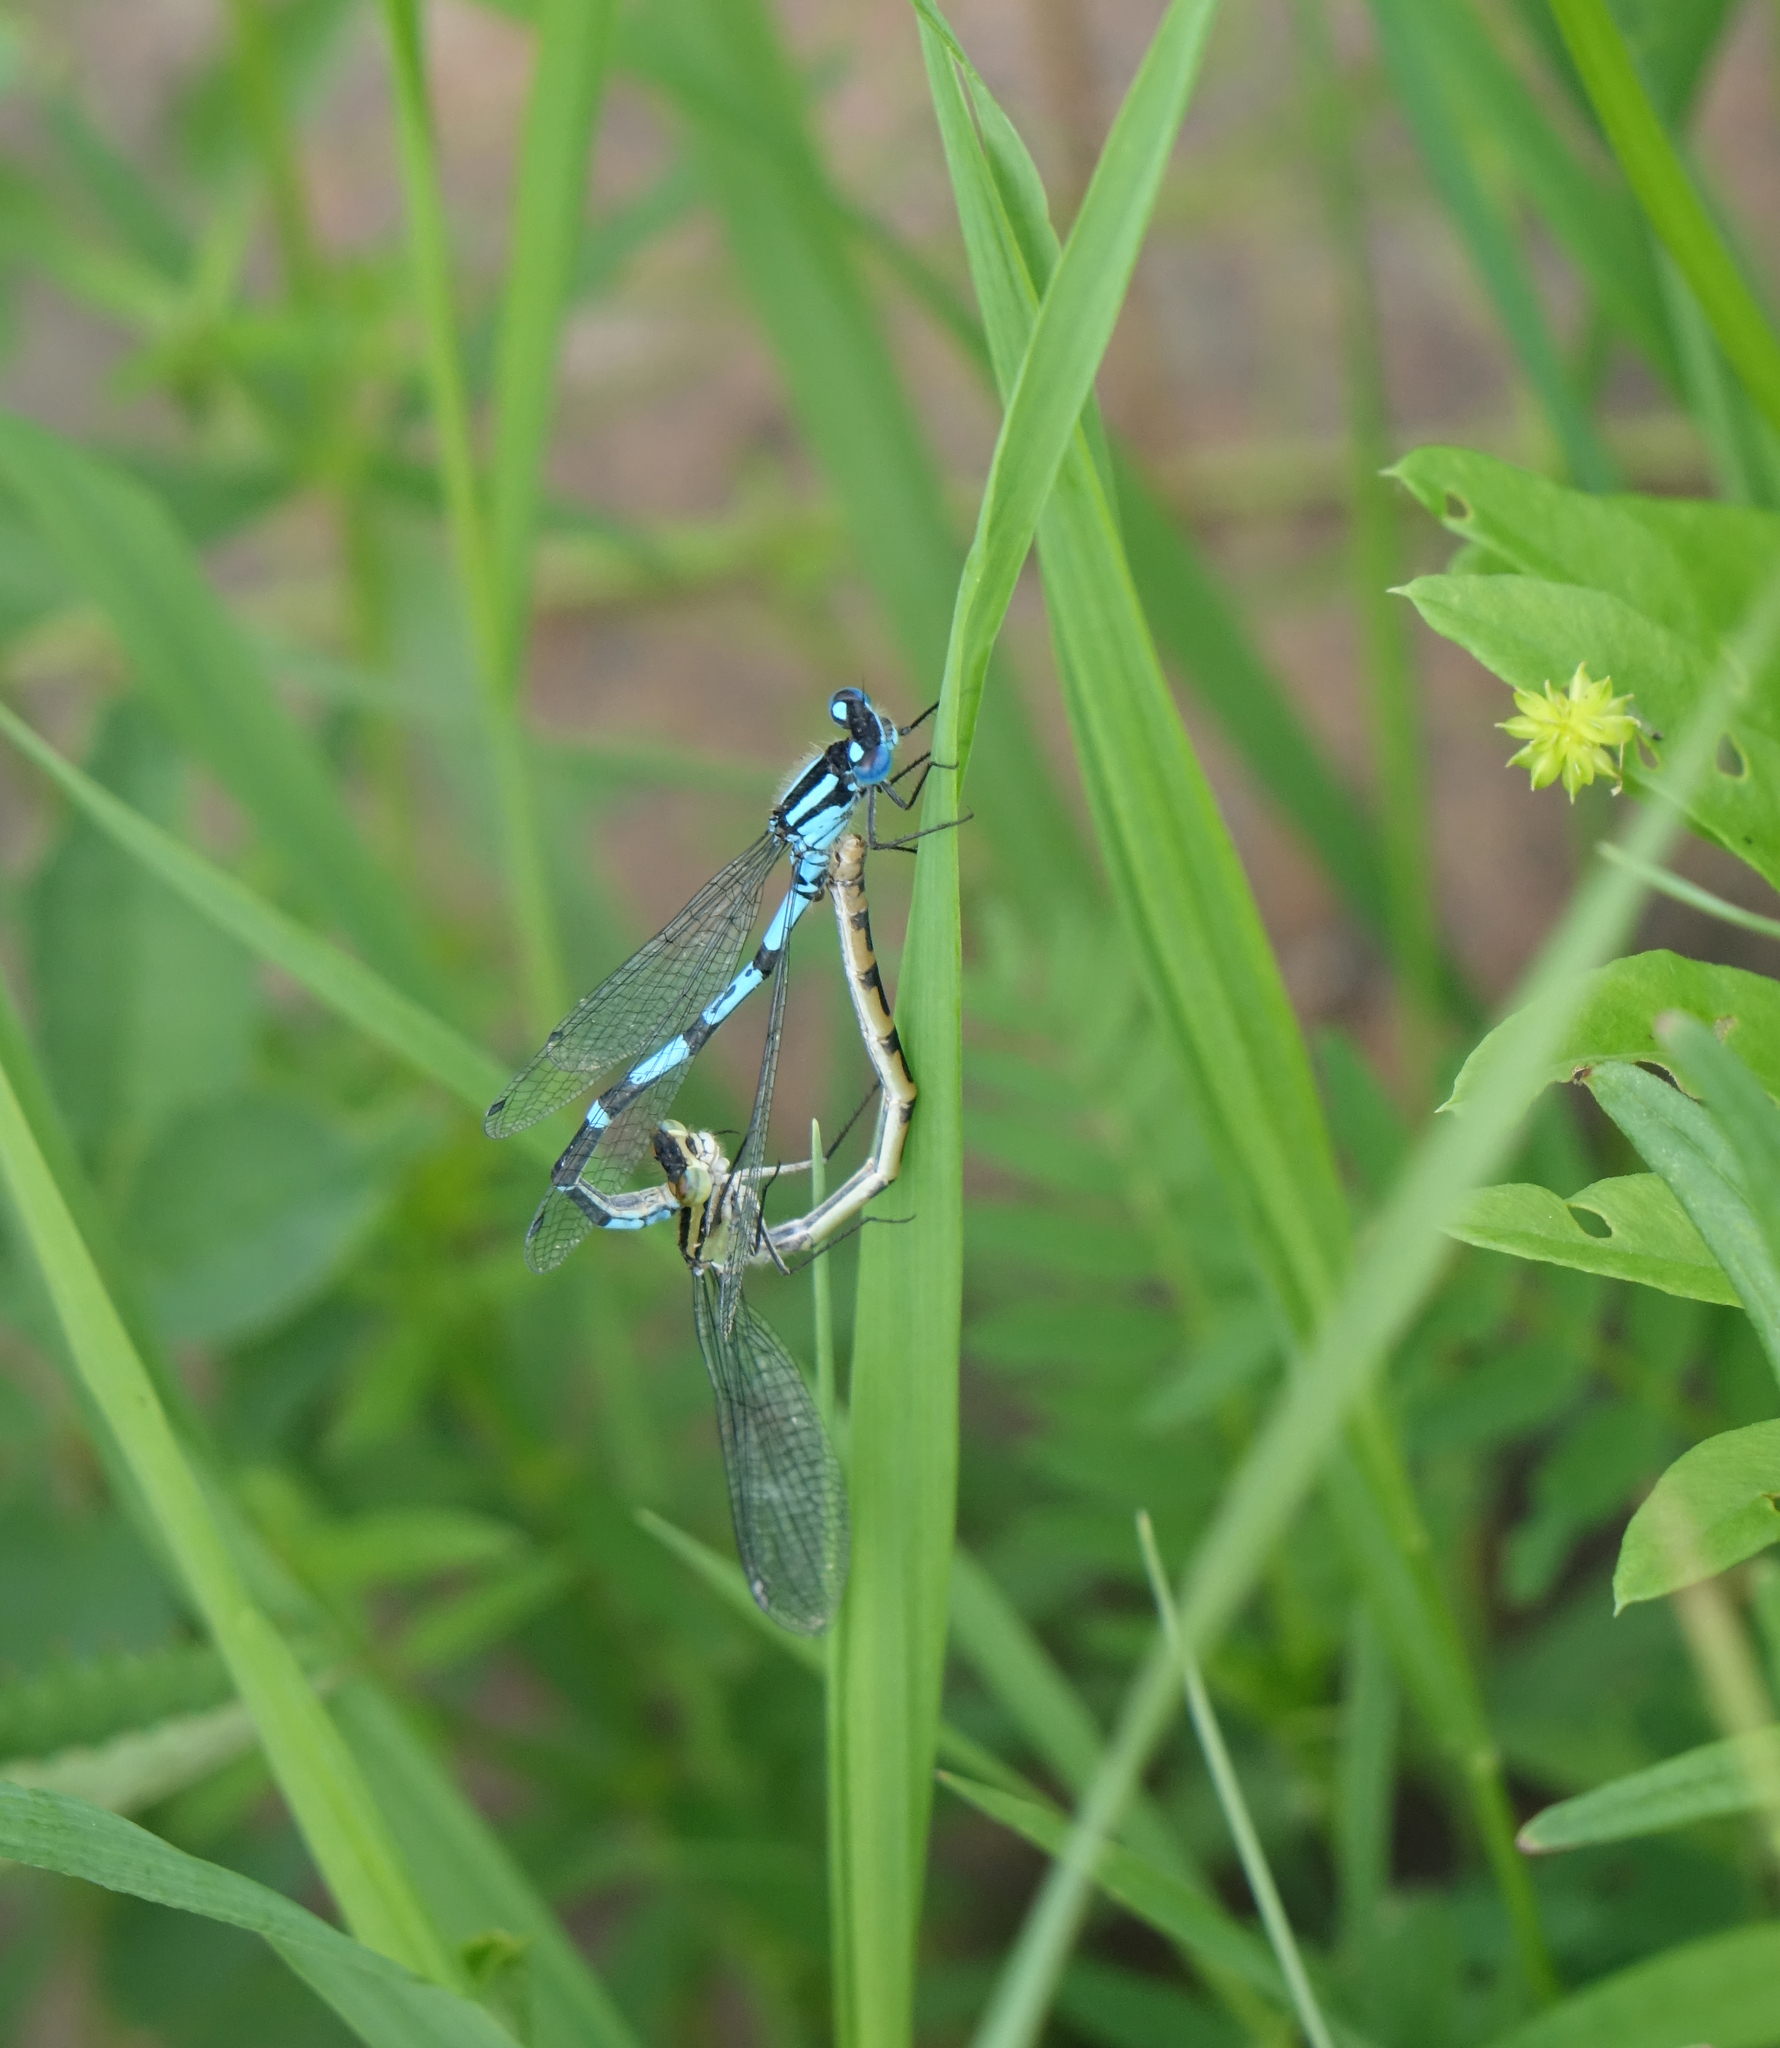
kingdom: Animalia
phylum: Arthropoda
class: Insecta
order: Odonata
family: Coenagrionidae
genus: Enallagma
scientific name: Enallagma cyathigerum
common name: Common blue damselfly
